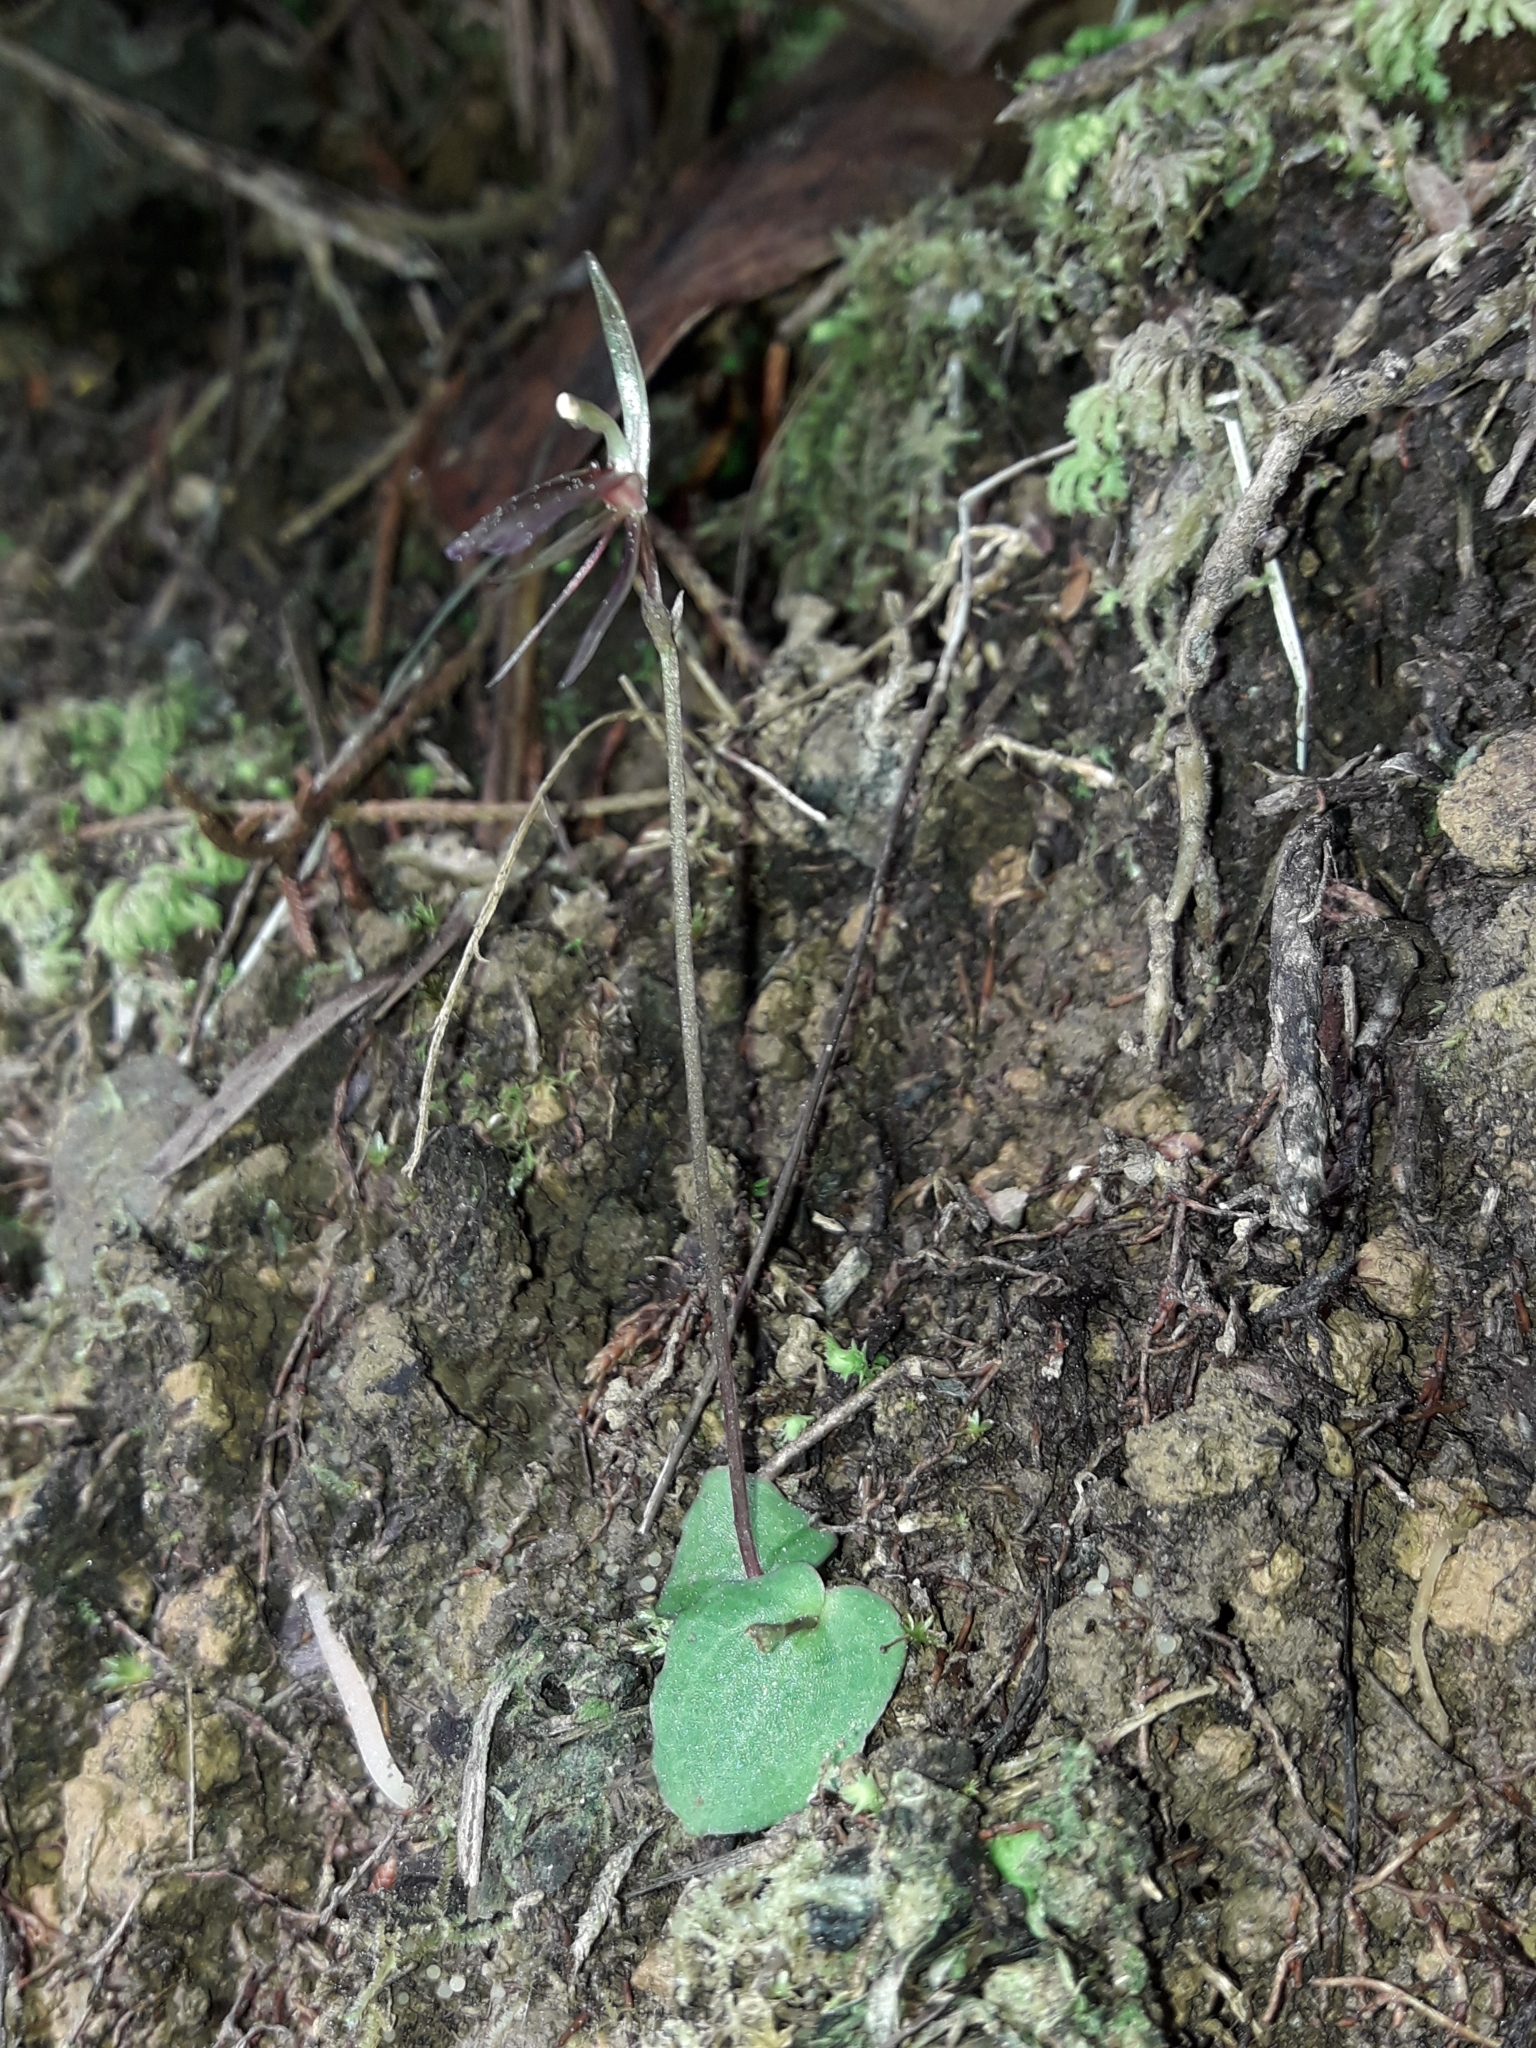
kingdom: Plantae
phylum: Tracheophyta
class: Liliopsida
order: Asparagales
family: Orchidaceae
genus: Cyrtostylis
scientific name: Cyrtostylis rotundifolia
